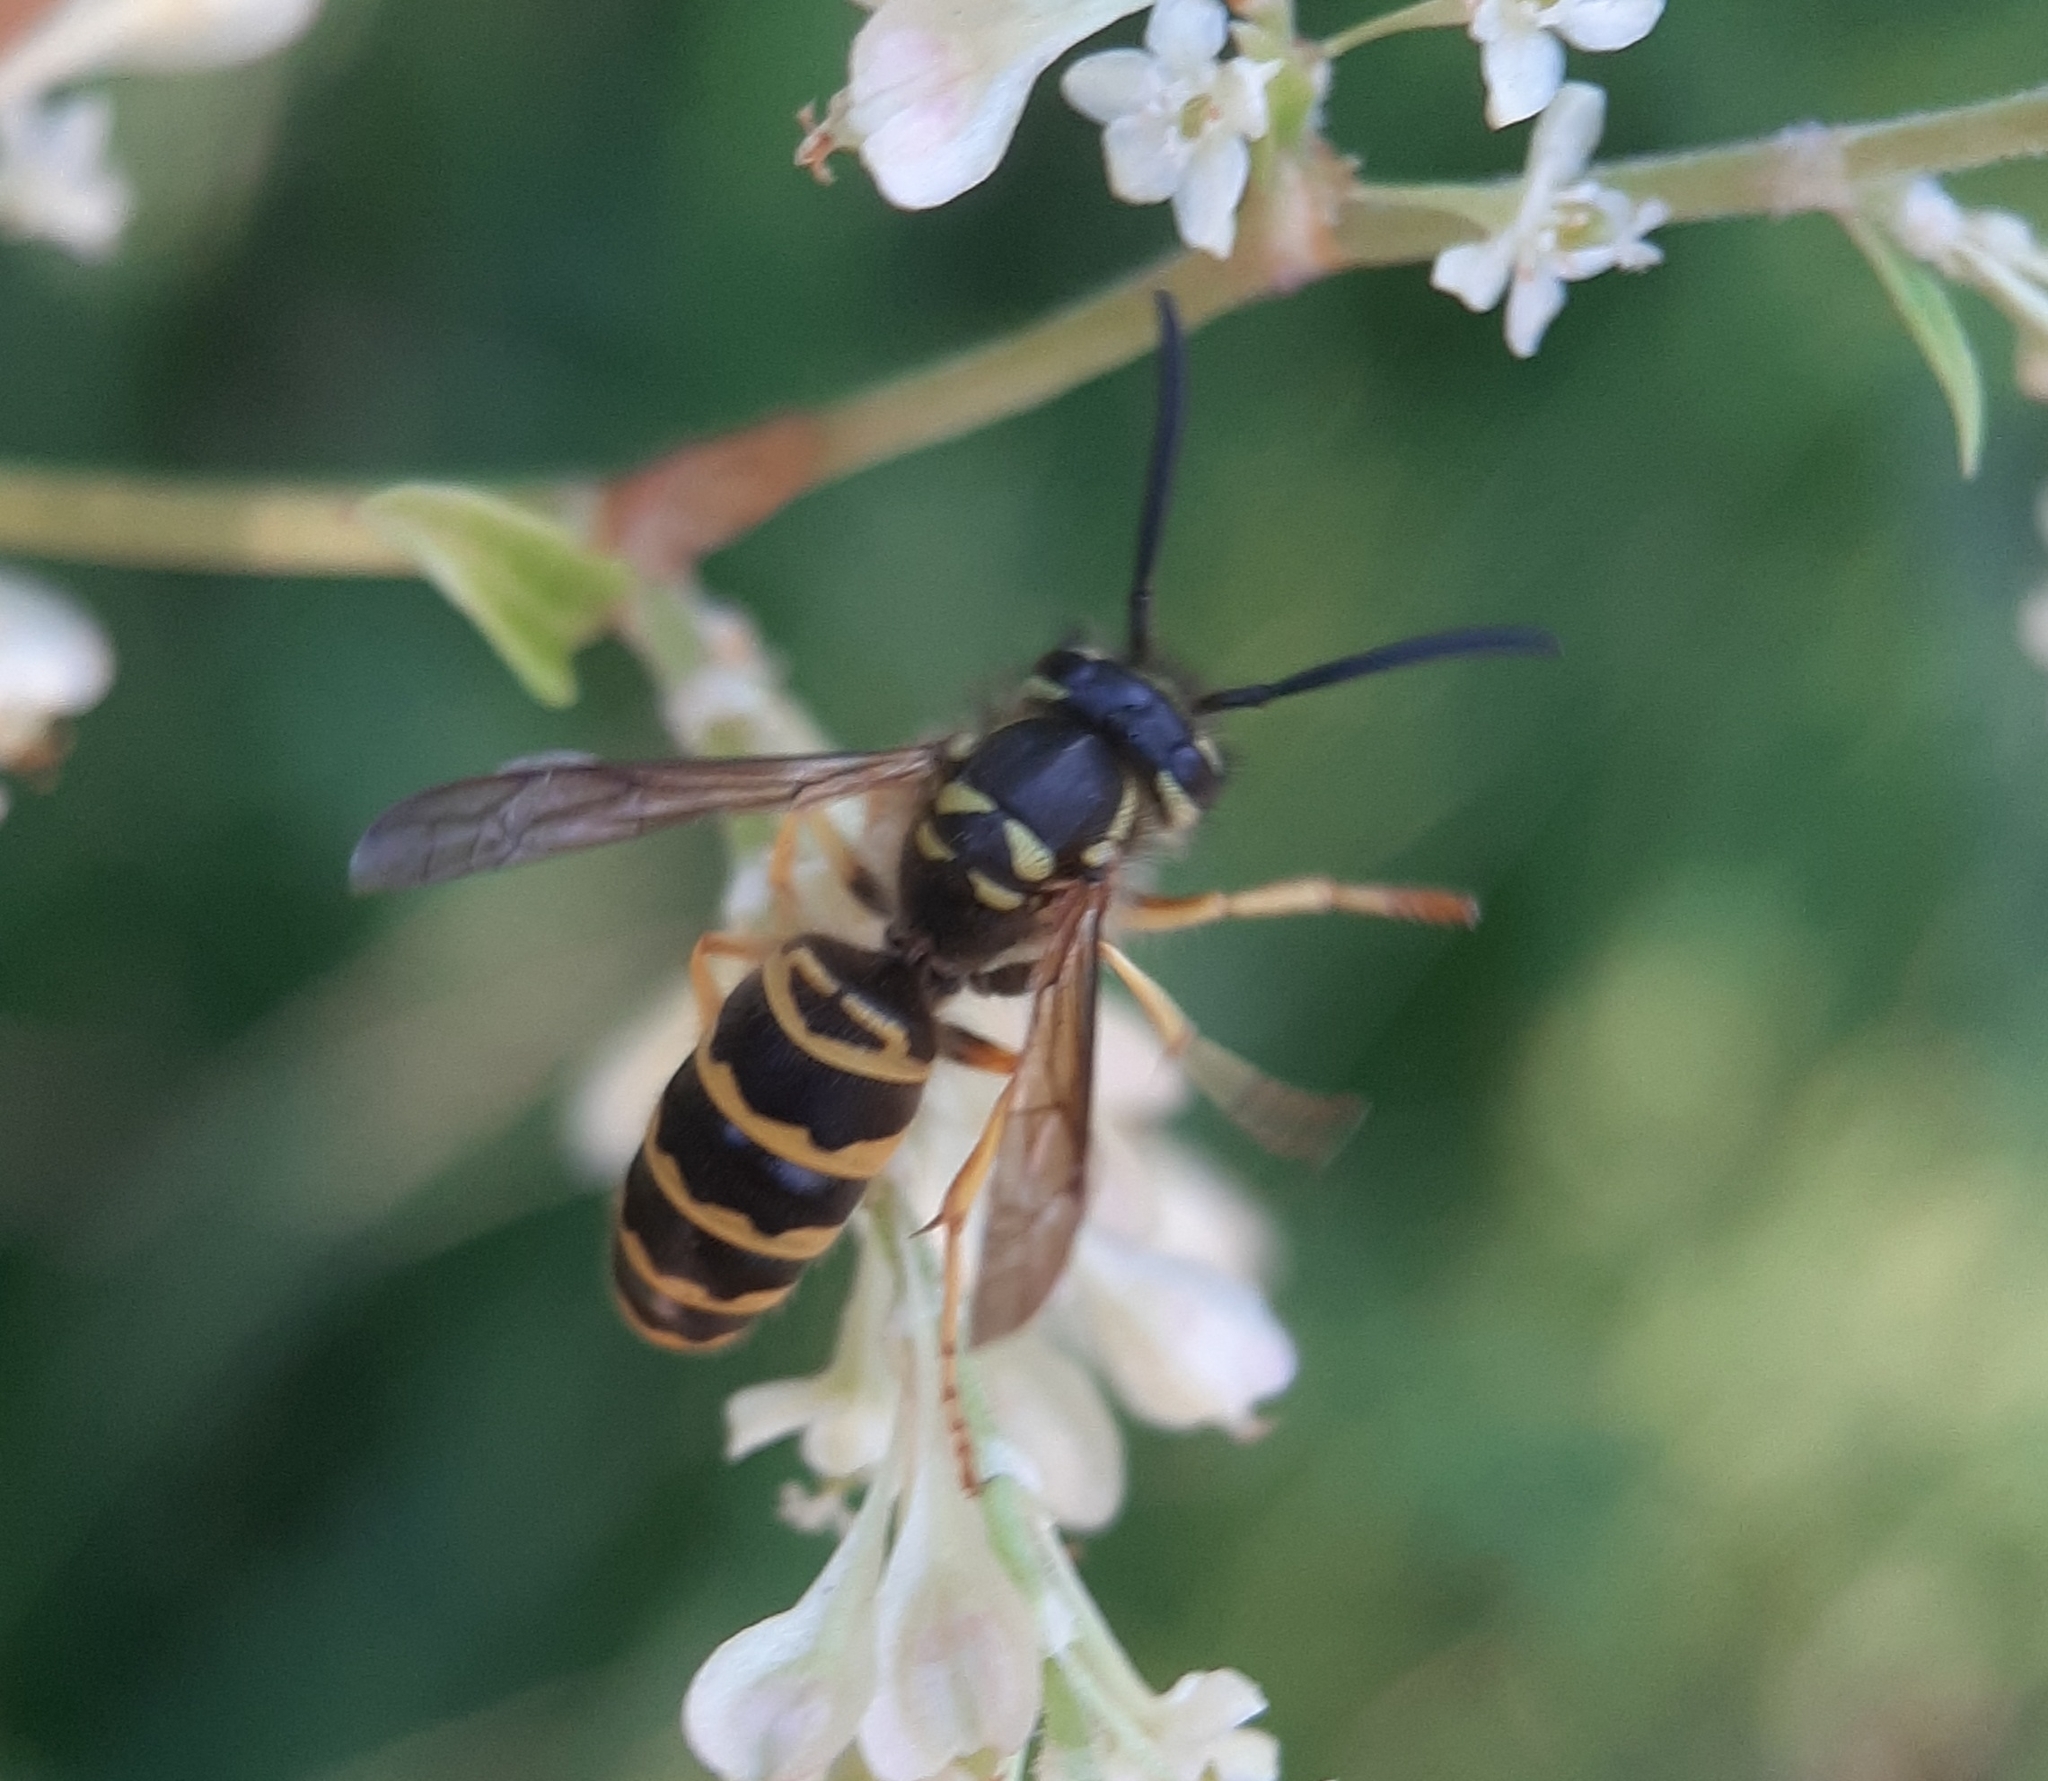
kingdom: Animalia
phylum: Arthropoda
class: Insecta
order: Hymenoptera
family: Vespidae
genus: Vespula
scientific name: Vespula maculifrons
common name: Eastern yellowjacket
